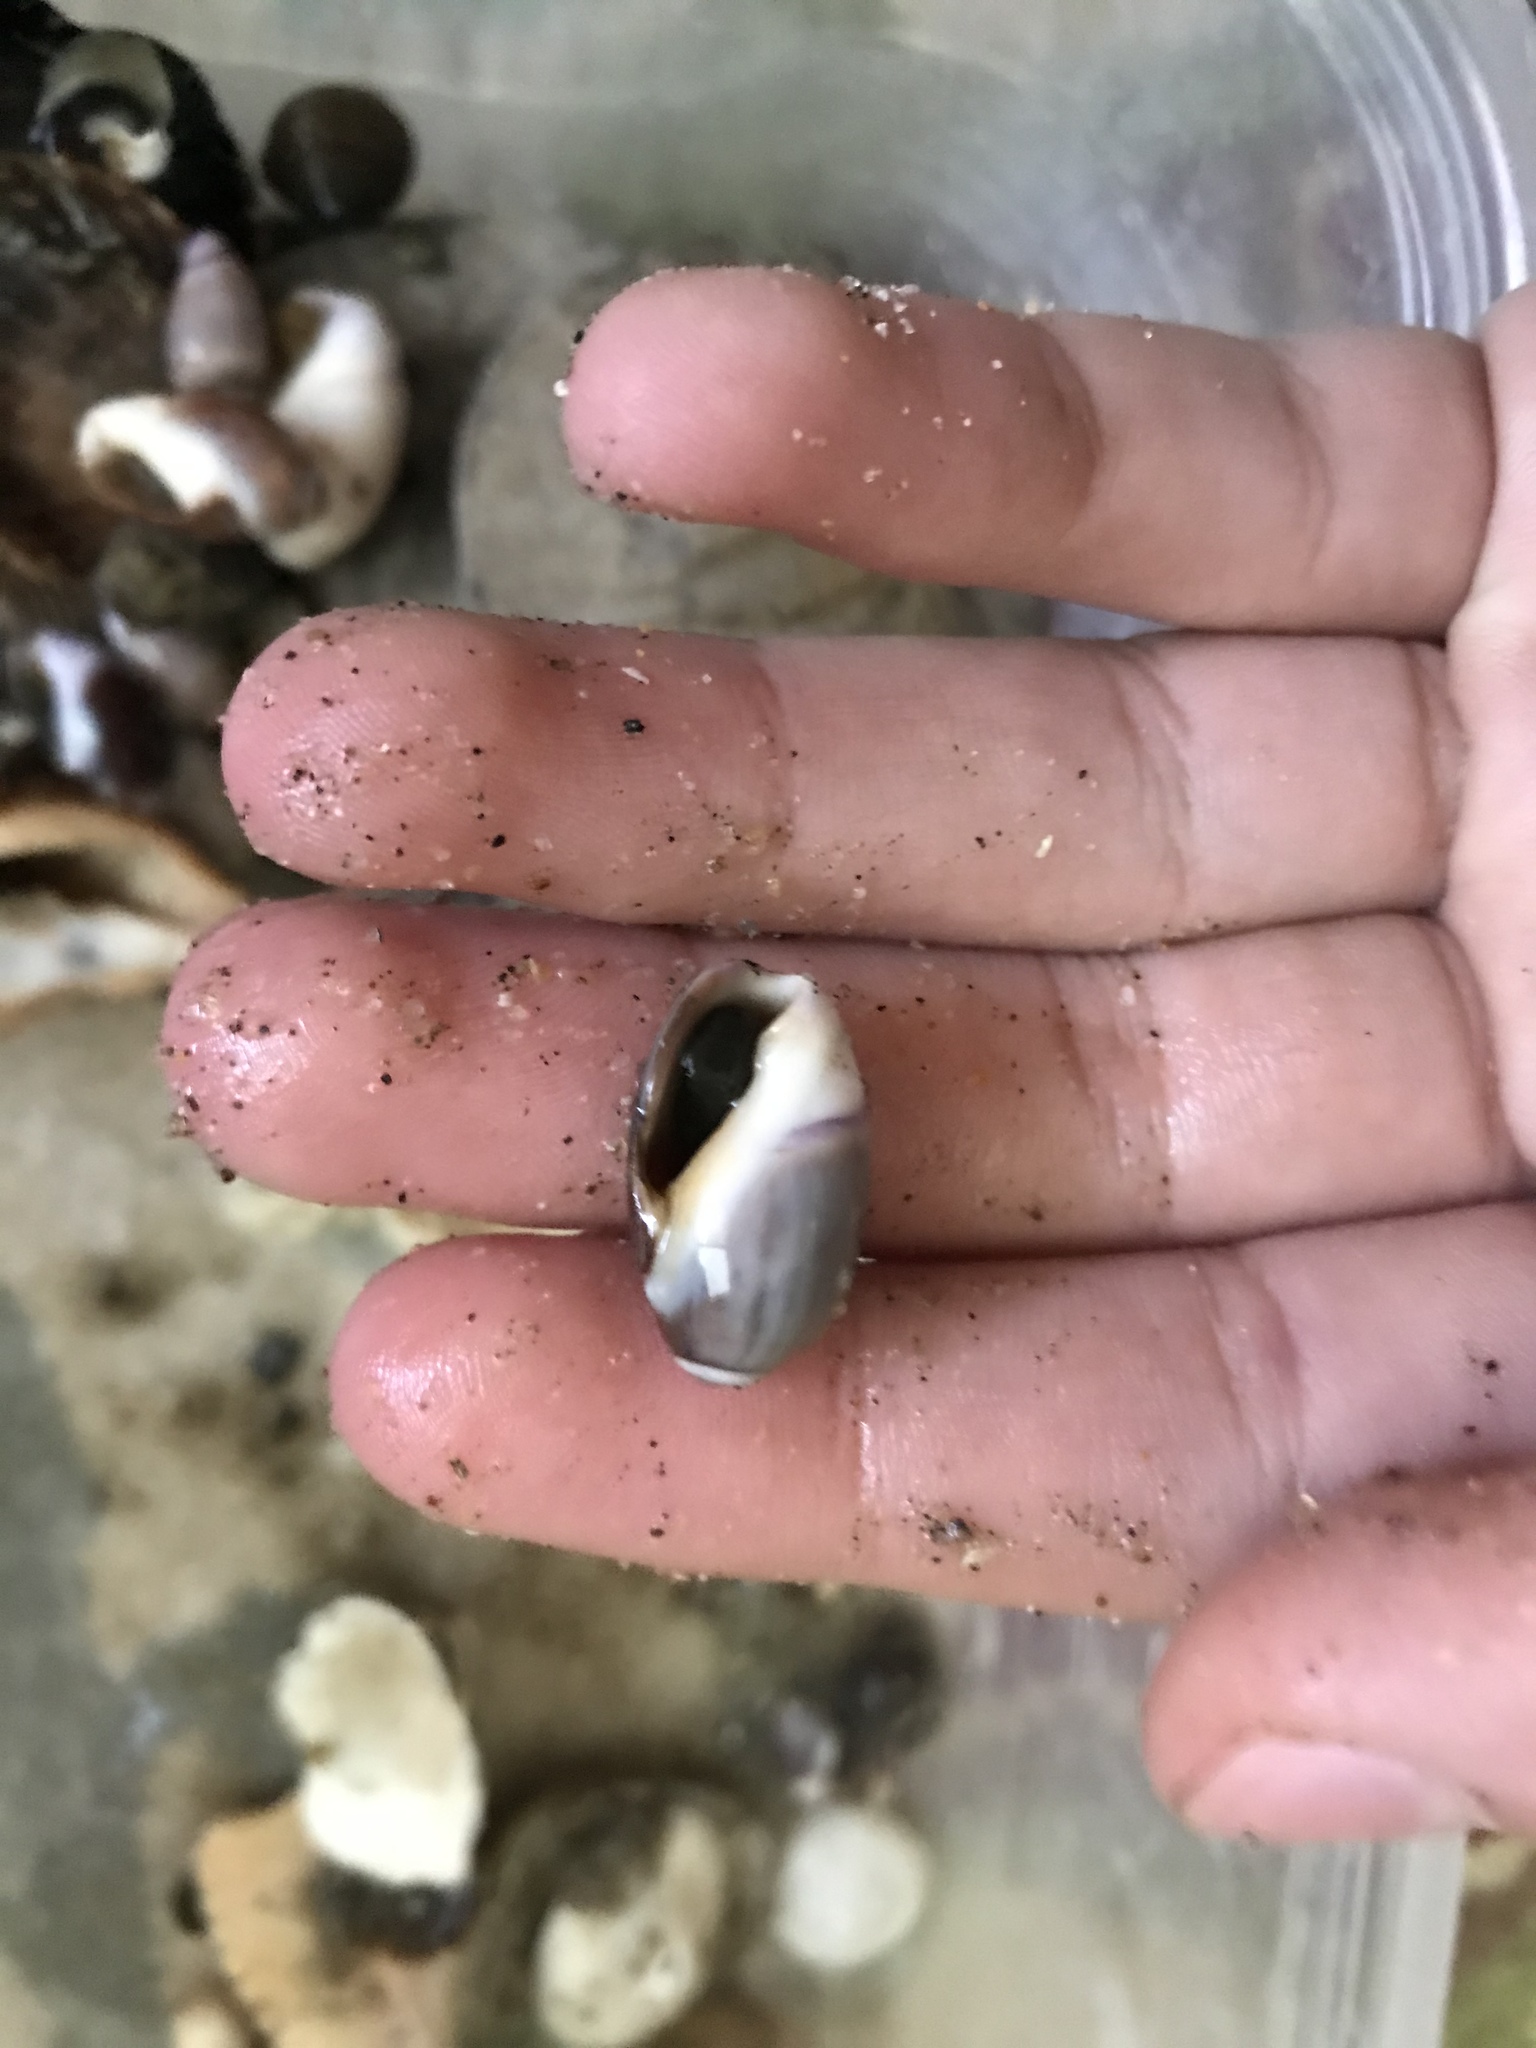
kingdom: Animalia
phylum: Mollusca
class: Gastropoda
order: Neogastropoda
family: Olividae
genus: Callianax
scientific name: Callianax biplicata
